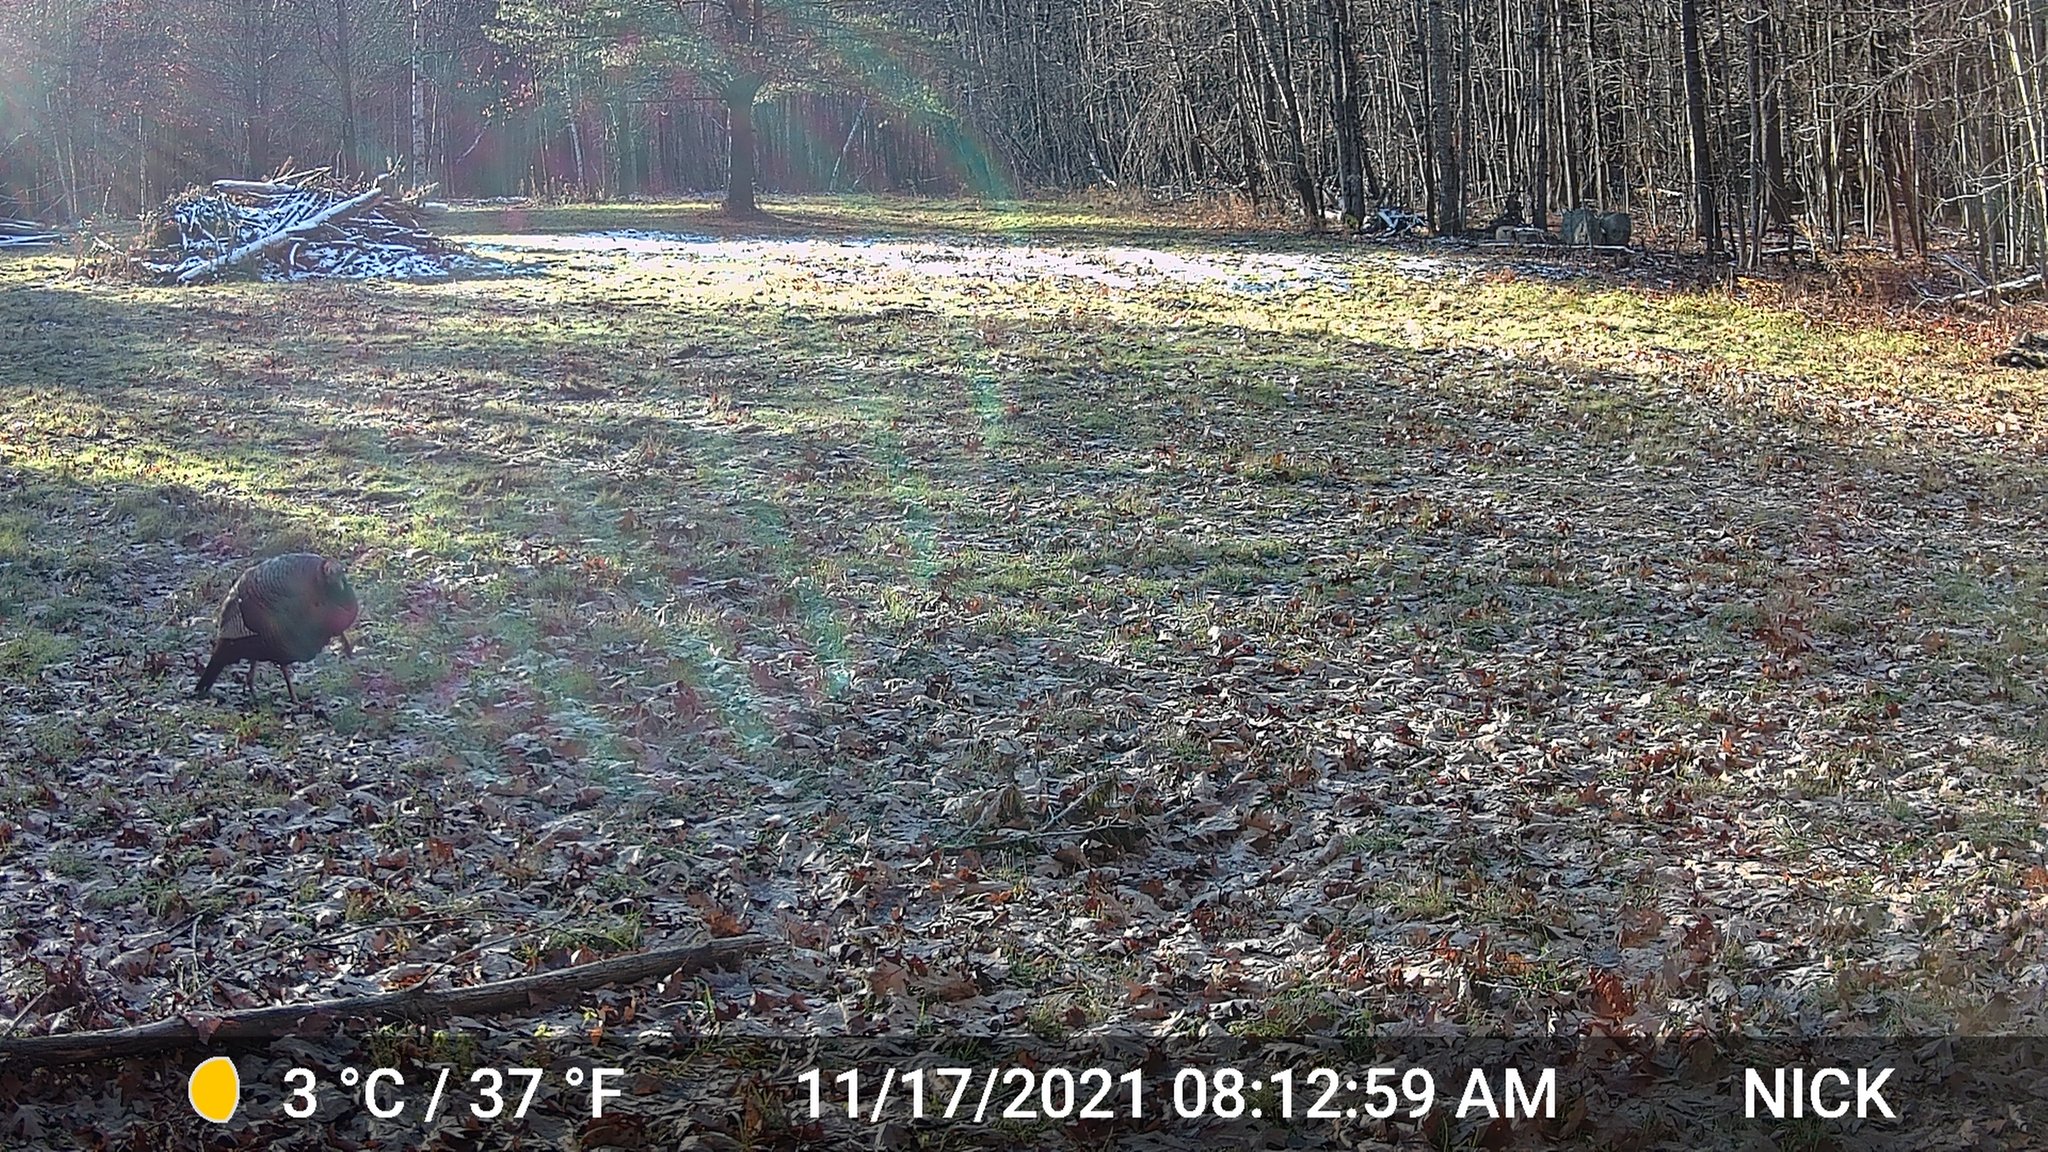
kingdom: Animalia
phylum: Chordata
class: Aves
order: Galliformes
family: Phasianidae
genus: Meleagris
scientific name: Meleagris gallopavo
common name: Wild turkey
